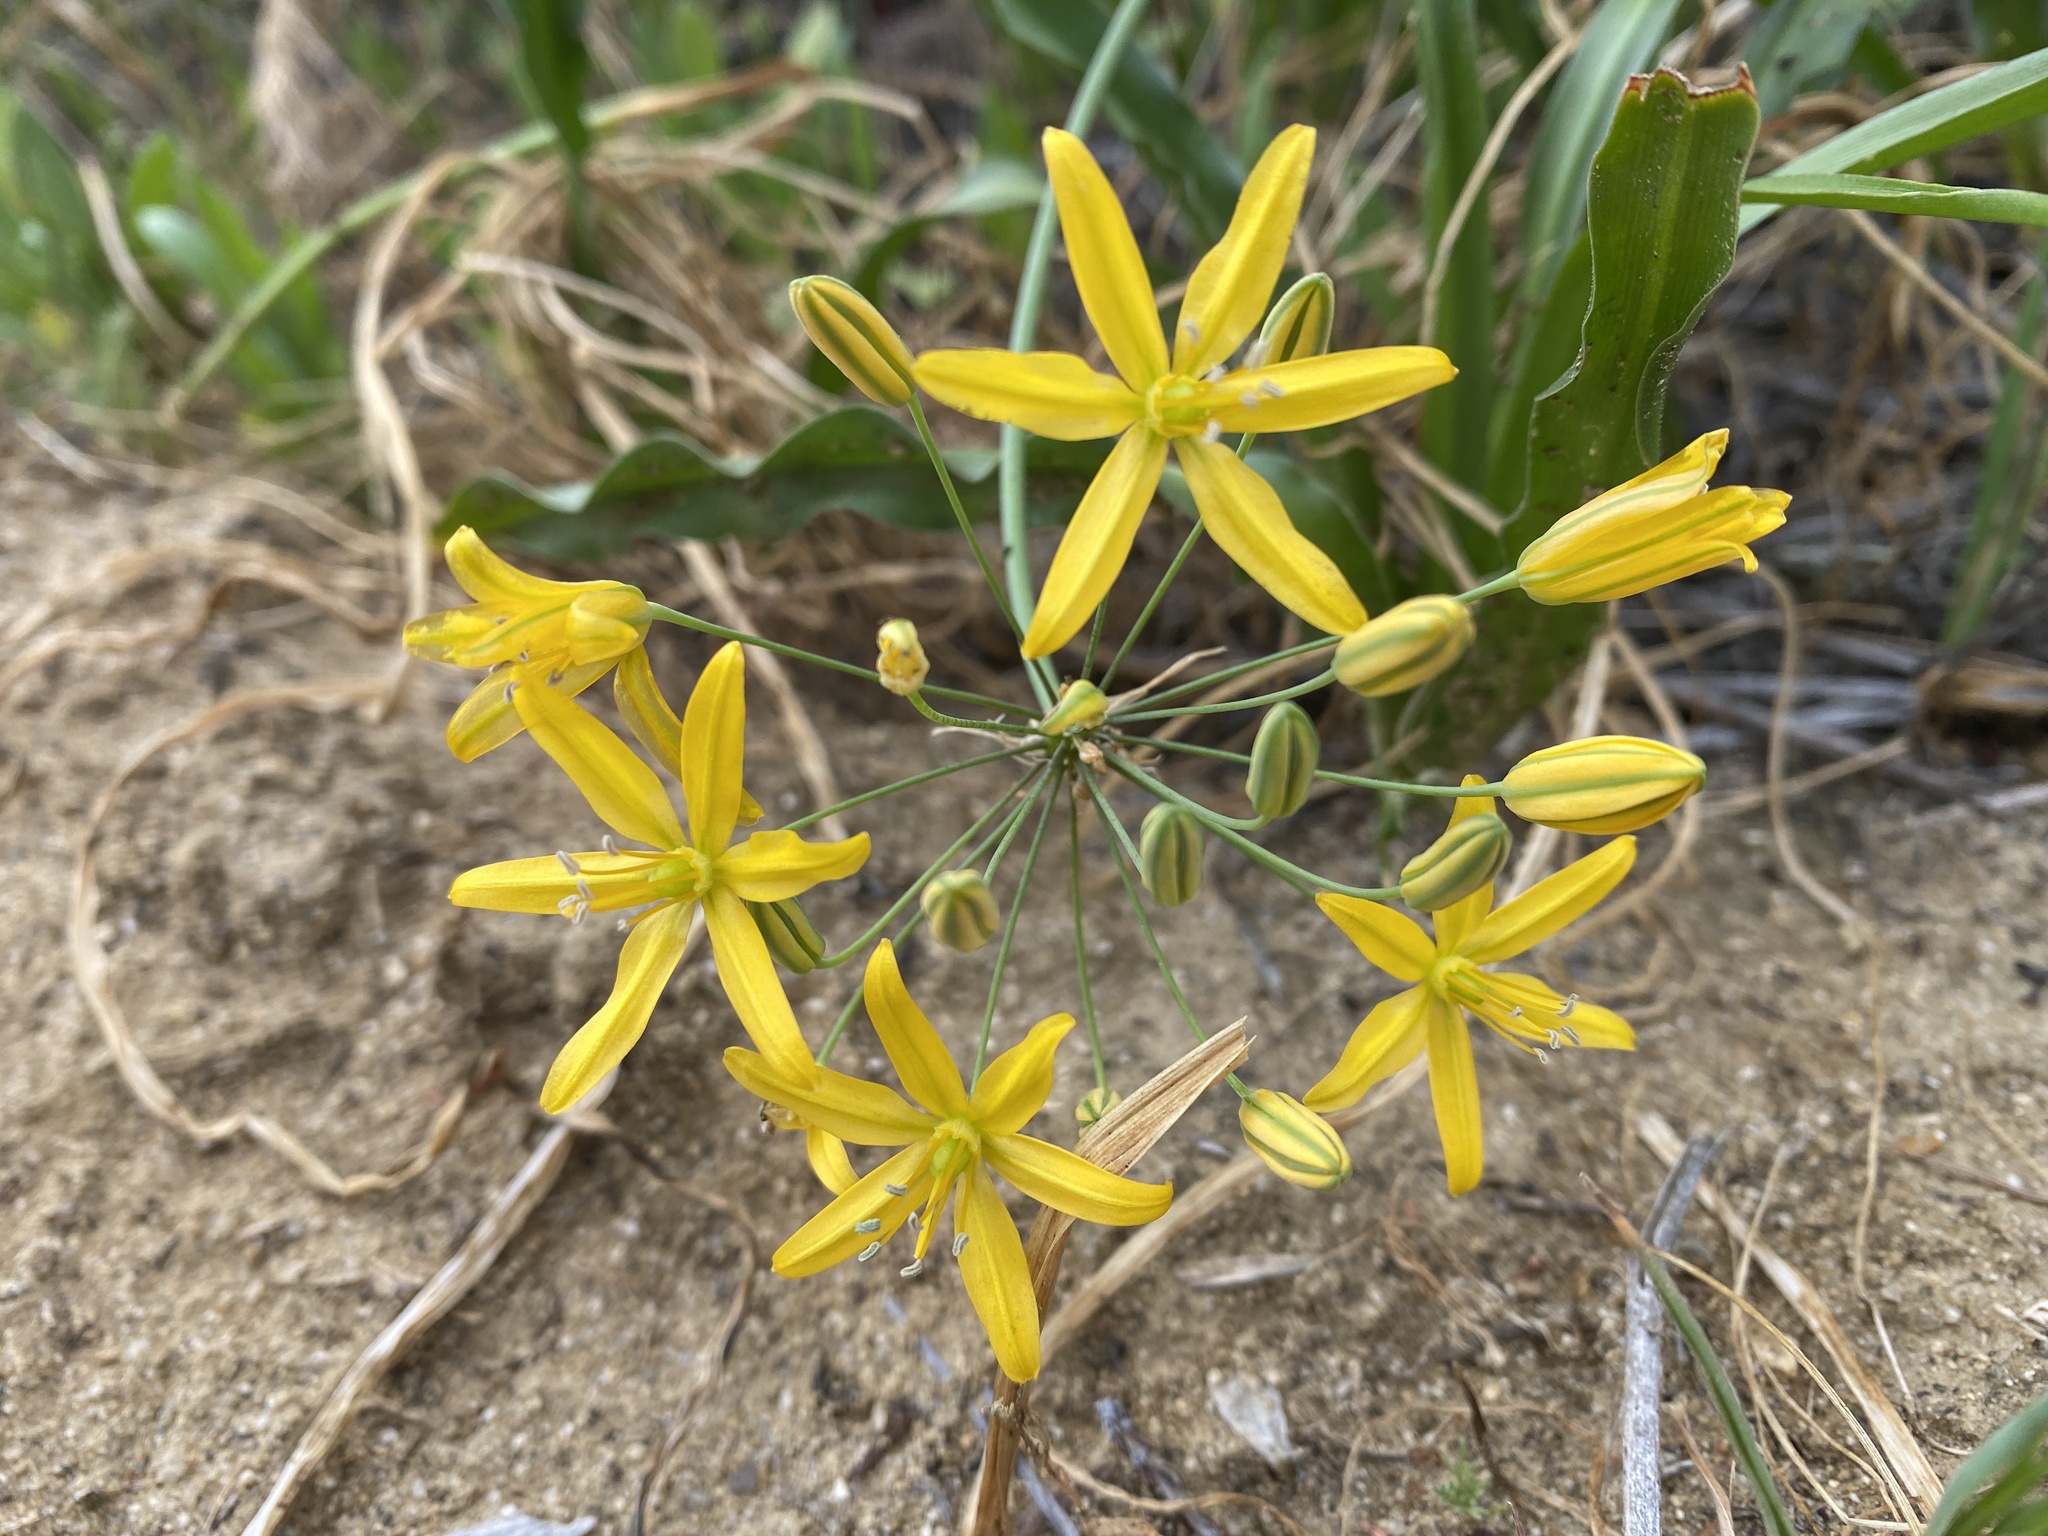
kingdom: Plantae
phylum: Tracheophyta
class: Liliopsida
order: Asparagales
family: Asparagaceae
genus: Bloomeria
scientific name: Bloomeria crocea
